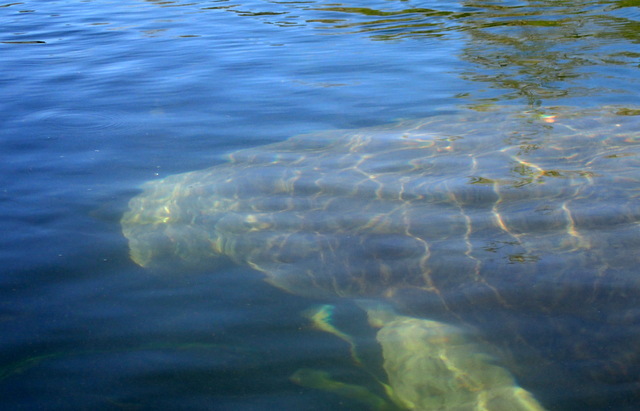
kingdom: Animalia
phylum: Chordata
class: Mammalia
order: Sirenia
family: Trichechidae
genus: Trichechus
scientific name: Trichechus manatus
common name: West indian manatee
